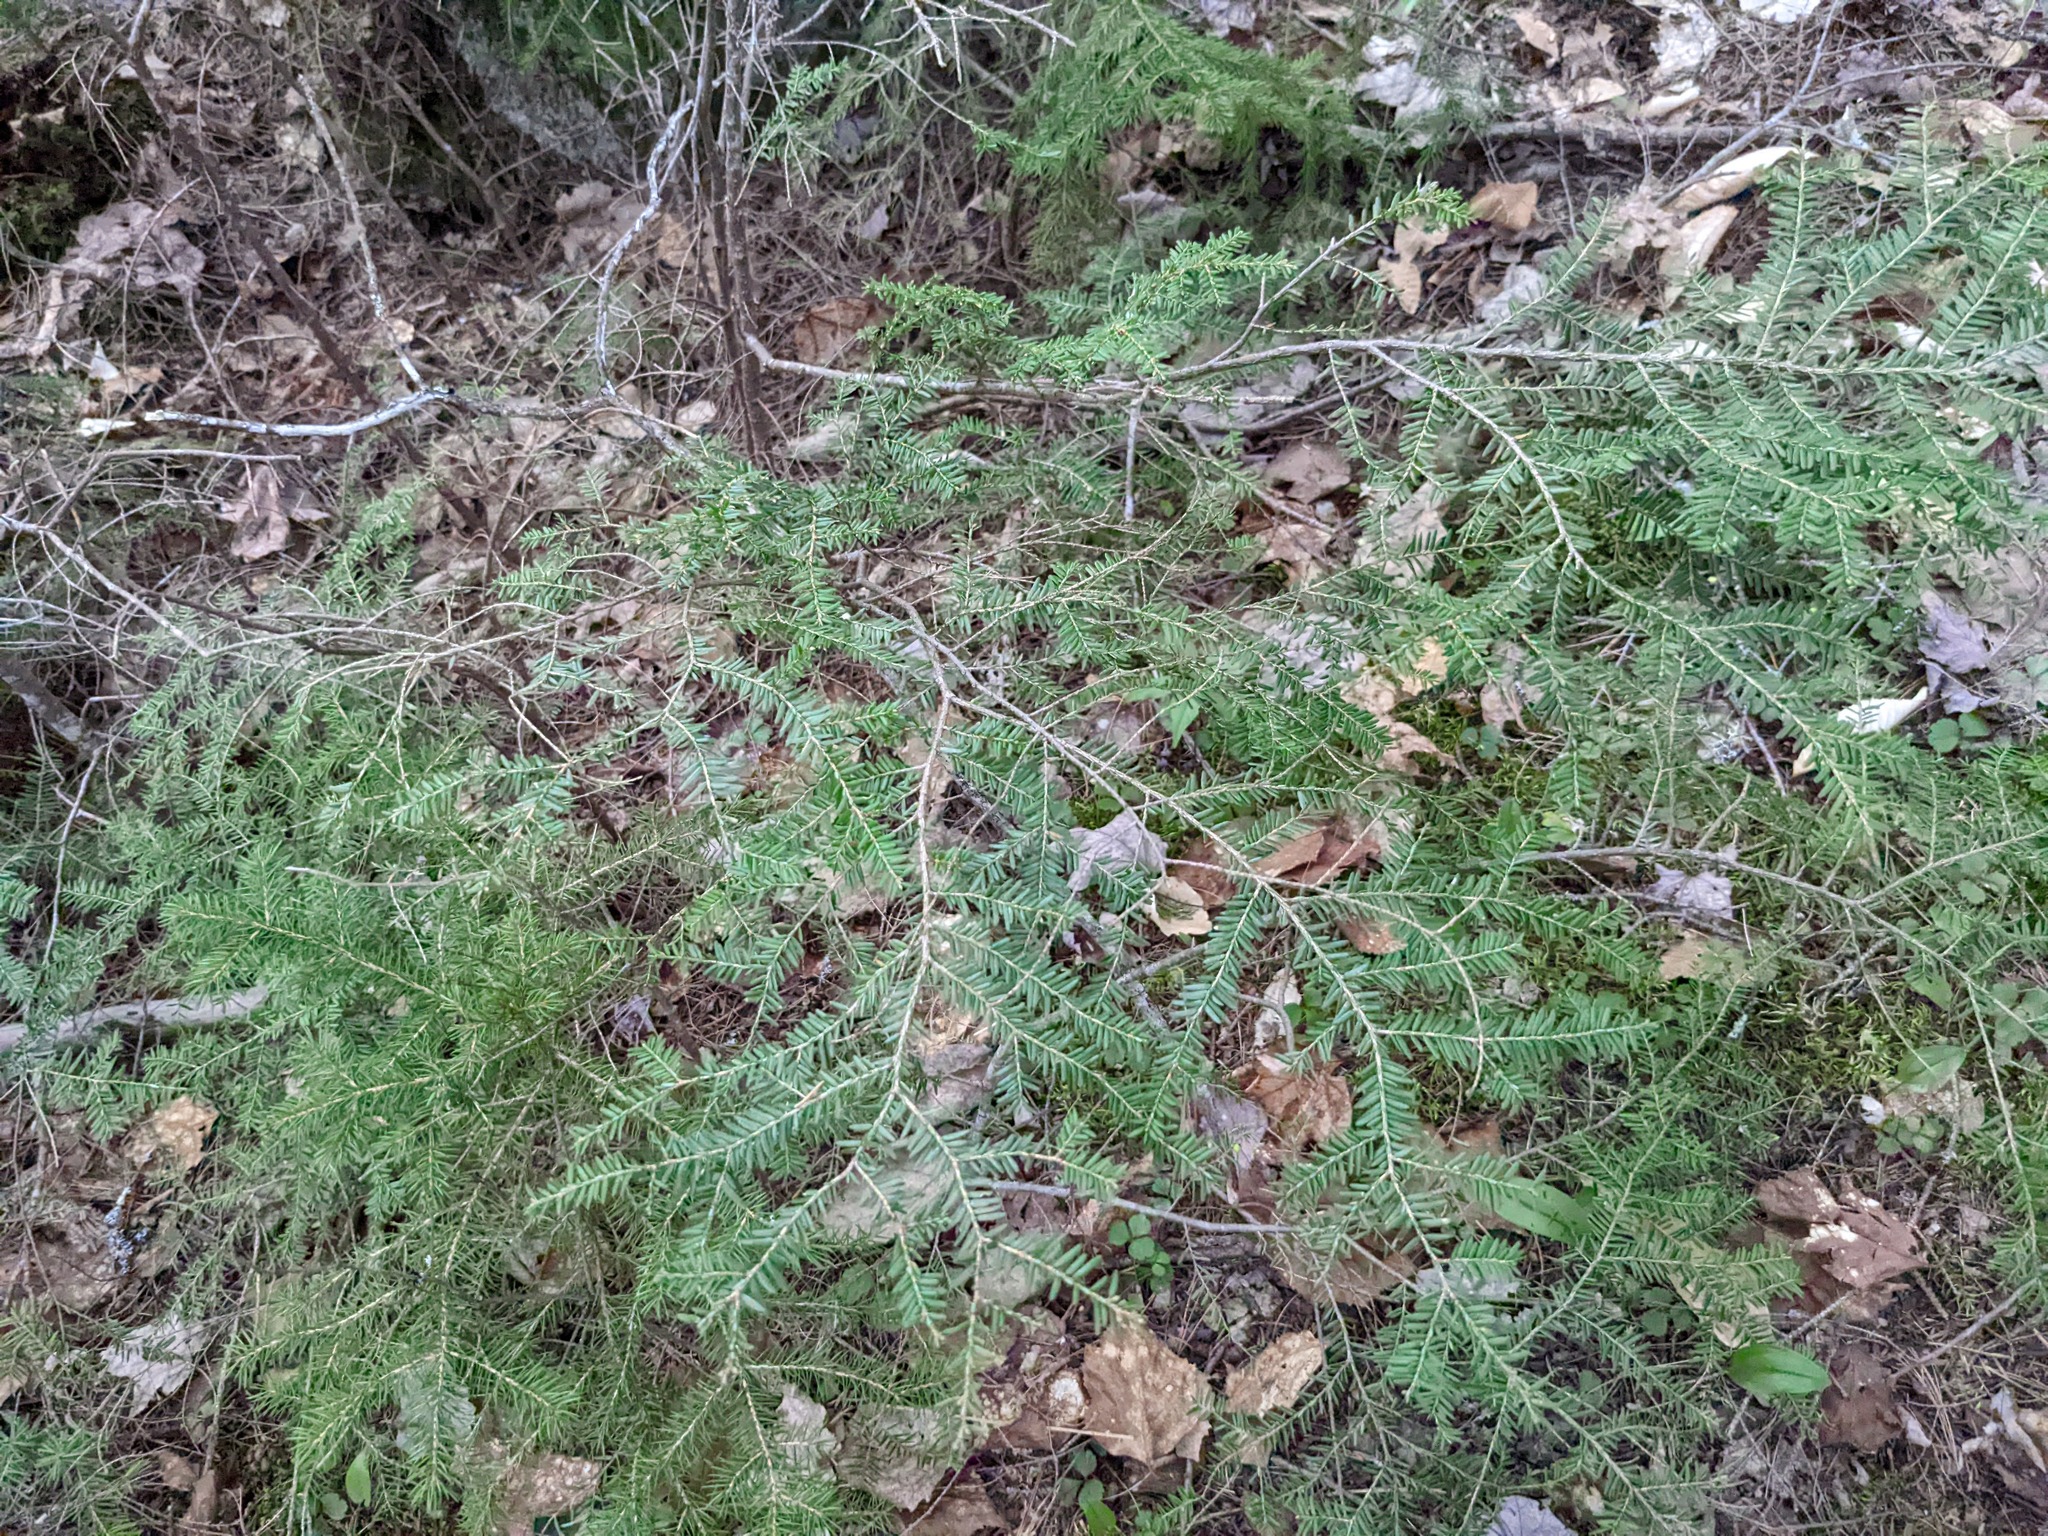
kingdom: Plantae
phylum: Tracheophyta
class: Pinopsida
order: Pinales
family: Pinaceae
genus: Tsuga
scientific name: Tsuga canadensis
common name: Eastern hemlock
